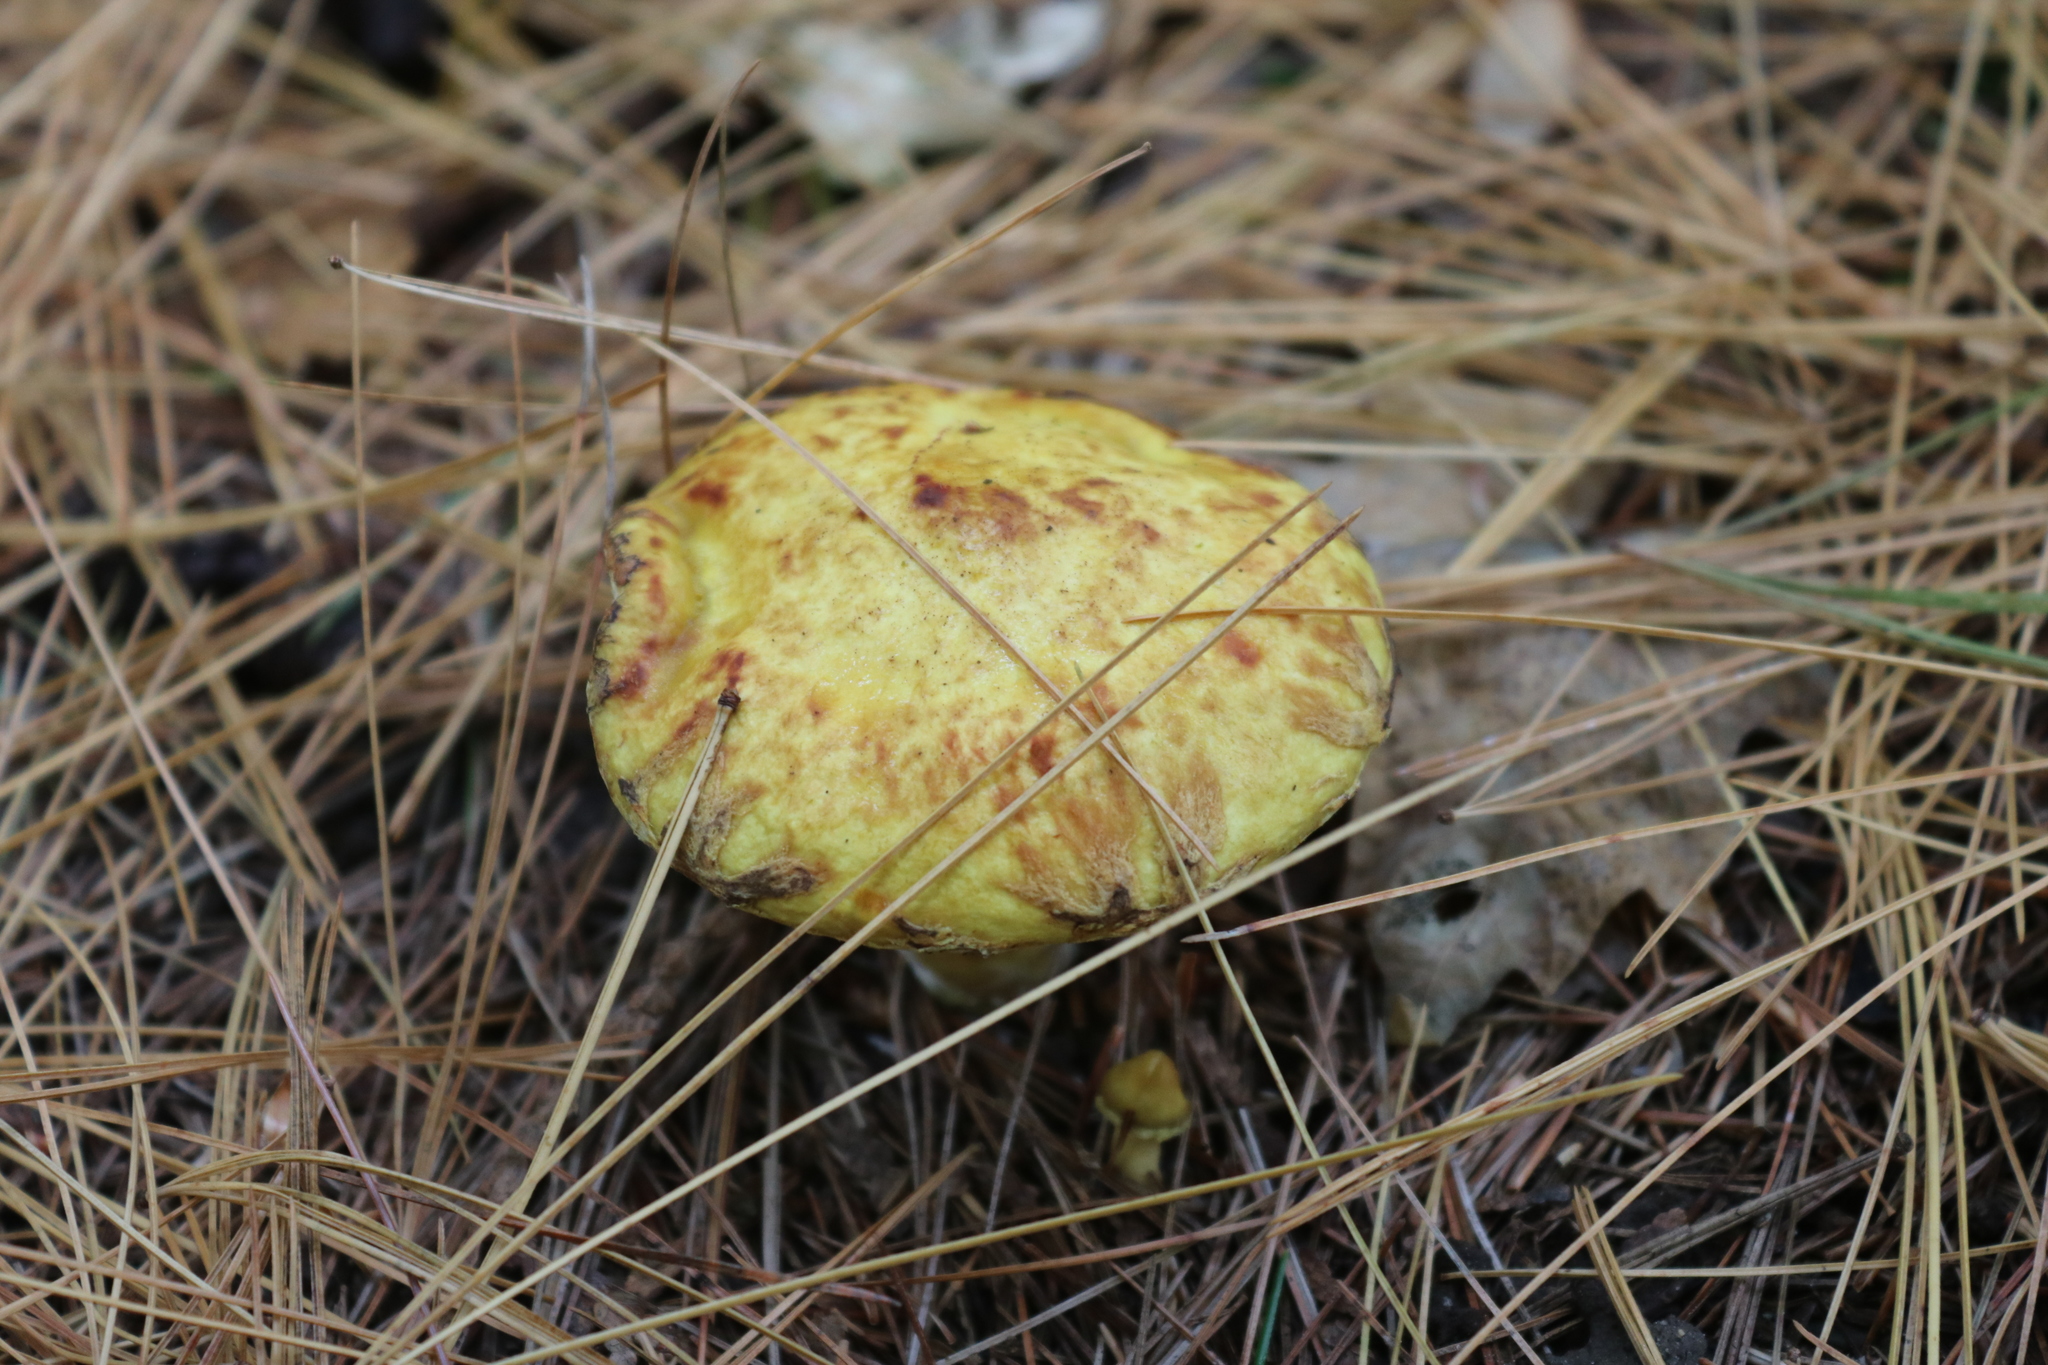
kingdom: Fungi
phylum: Basidiomycota
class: Agaricomycetes
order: Boletales
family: Suillaceae
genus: Suillus
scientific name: Suillus americanus
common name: Chicken fat mushroom
